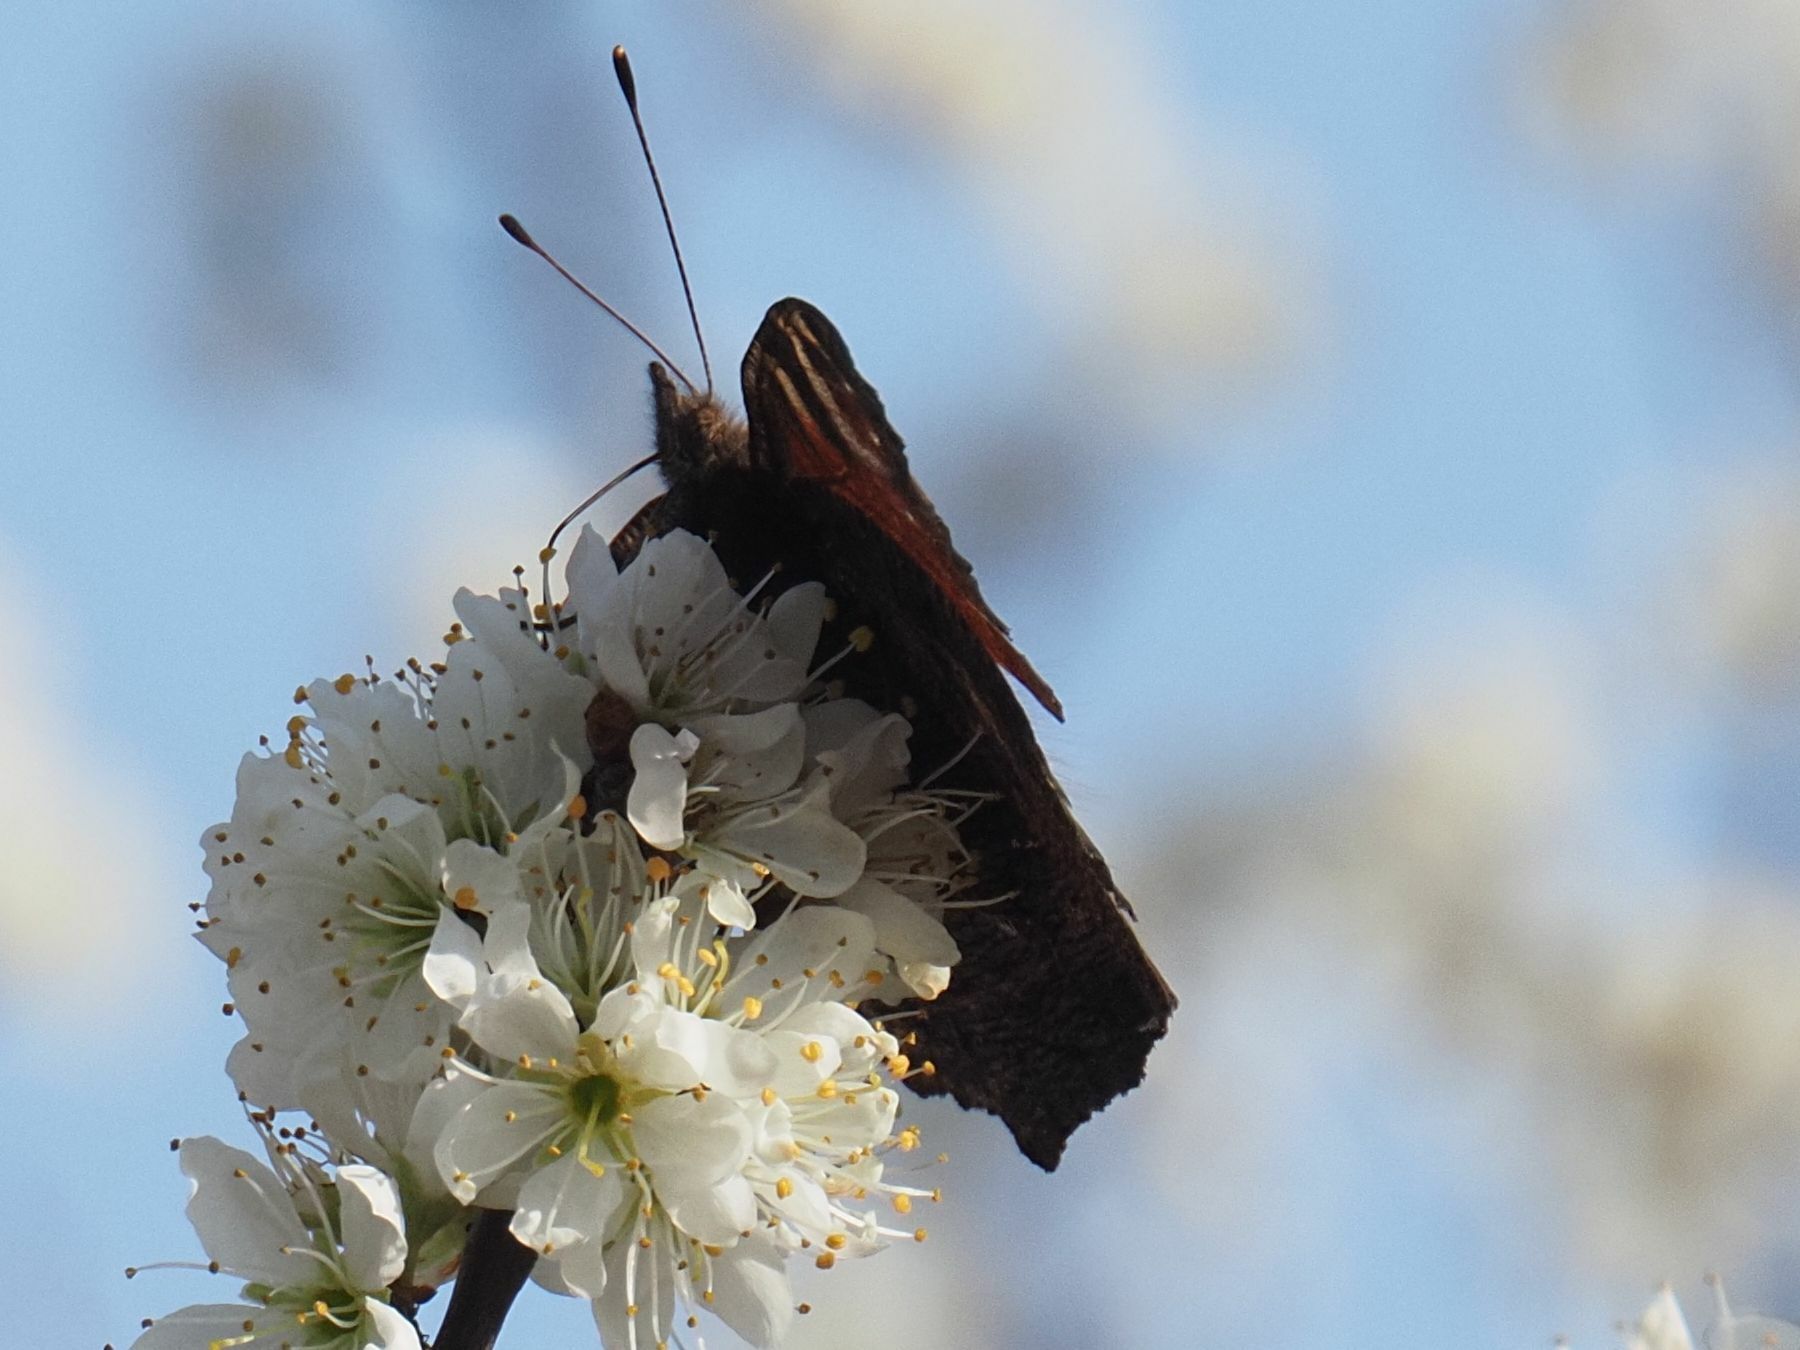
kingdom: Animalia
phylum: Arthropoda
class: Insecta
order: Lepidoptera
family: Nymphalidae
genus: Aglais
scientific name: Aglais io
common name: Peacock
